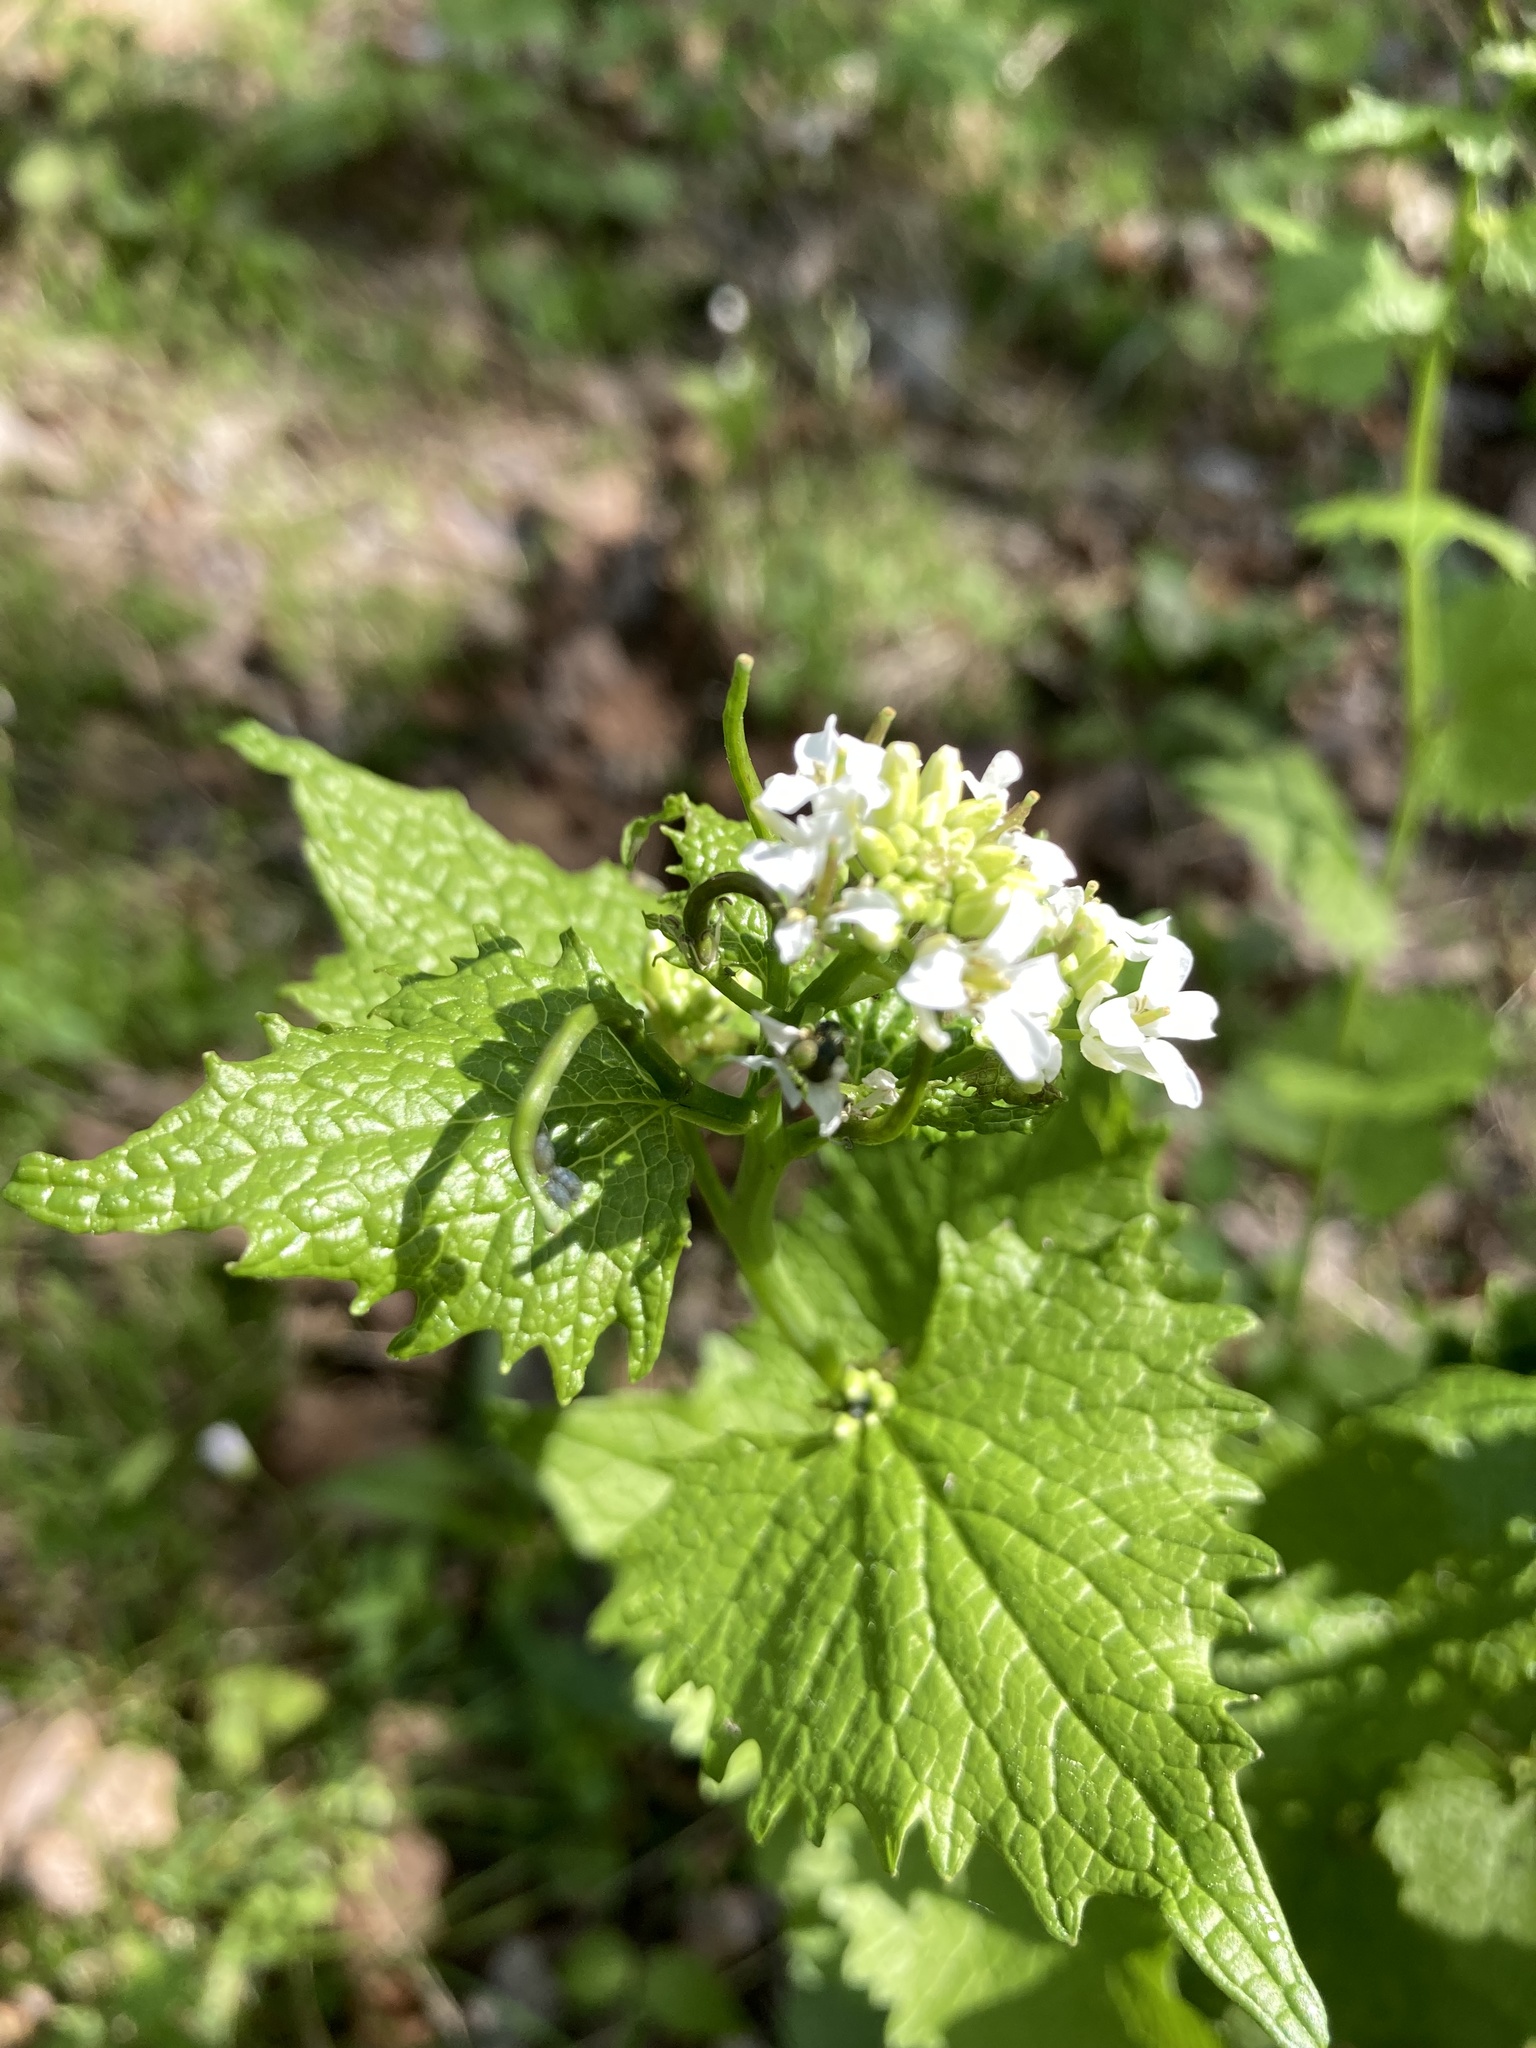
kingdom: Plantae
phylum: Tracheophyta
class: Magnoliopsida
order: Brassicales
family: Brassicaceae
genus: Alliaria
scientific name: Alliaria petiolata
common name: Garlic mustard
